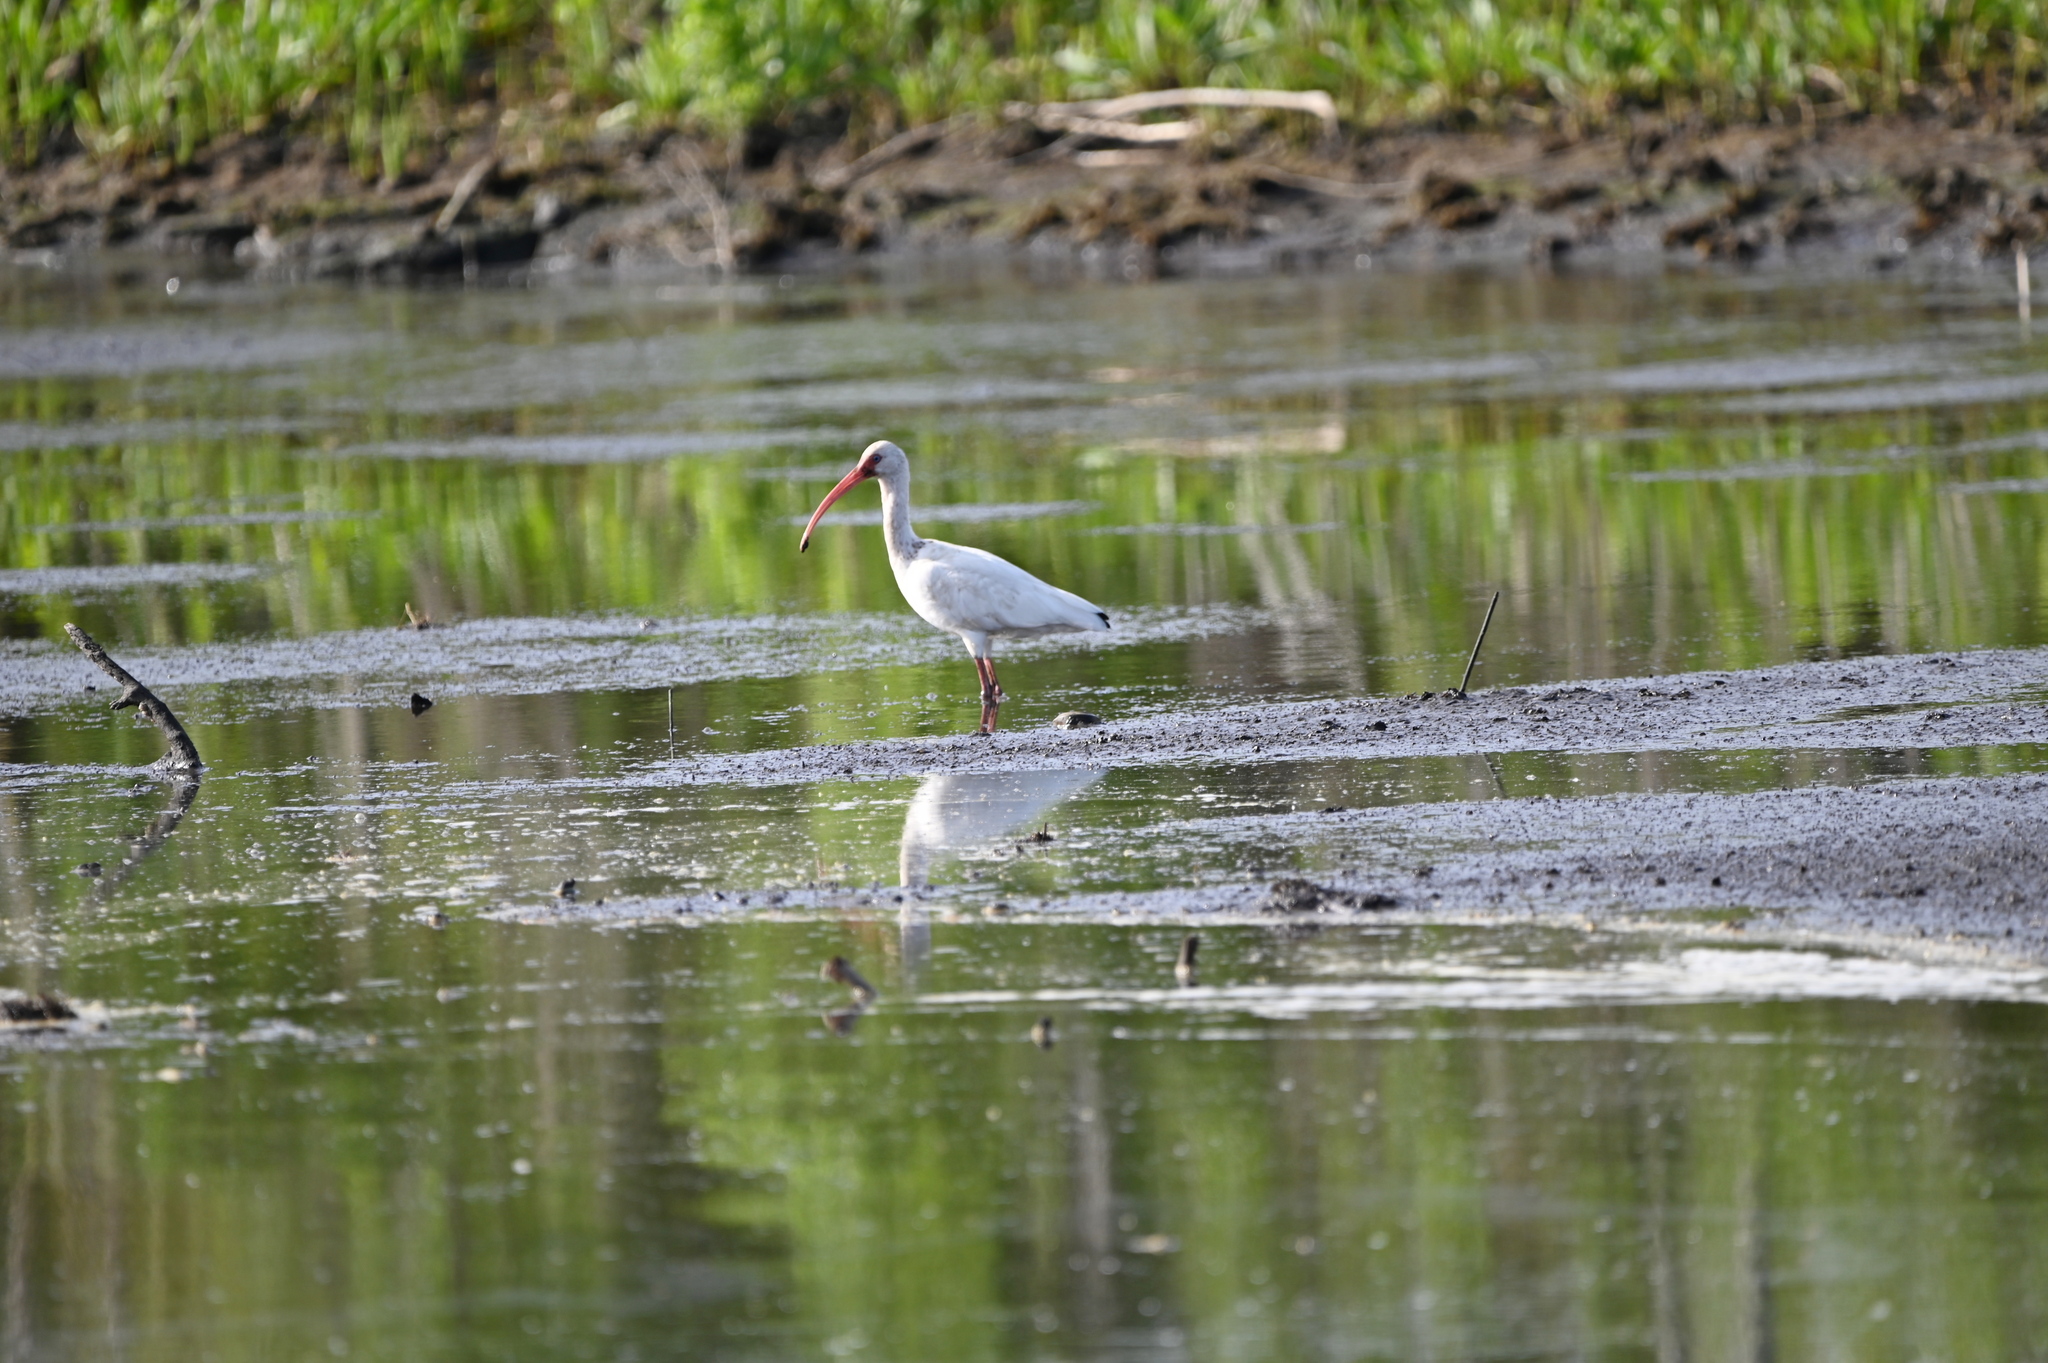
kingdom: Animalia
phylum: Chordata
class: Aves
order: Pelecaniformes
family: Threskiornithidae
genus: Eudocimus
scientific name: Eudocimus albus
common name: White ibis
